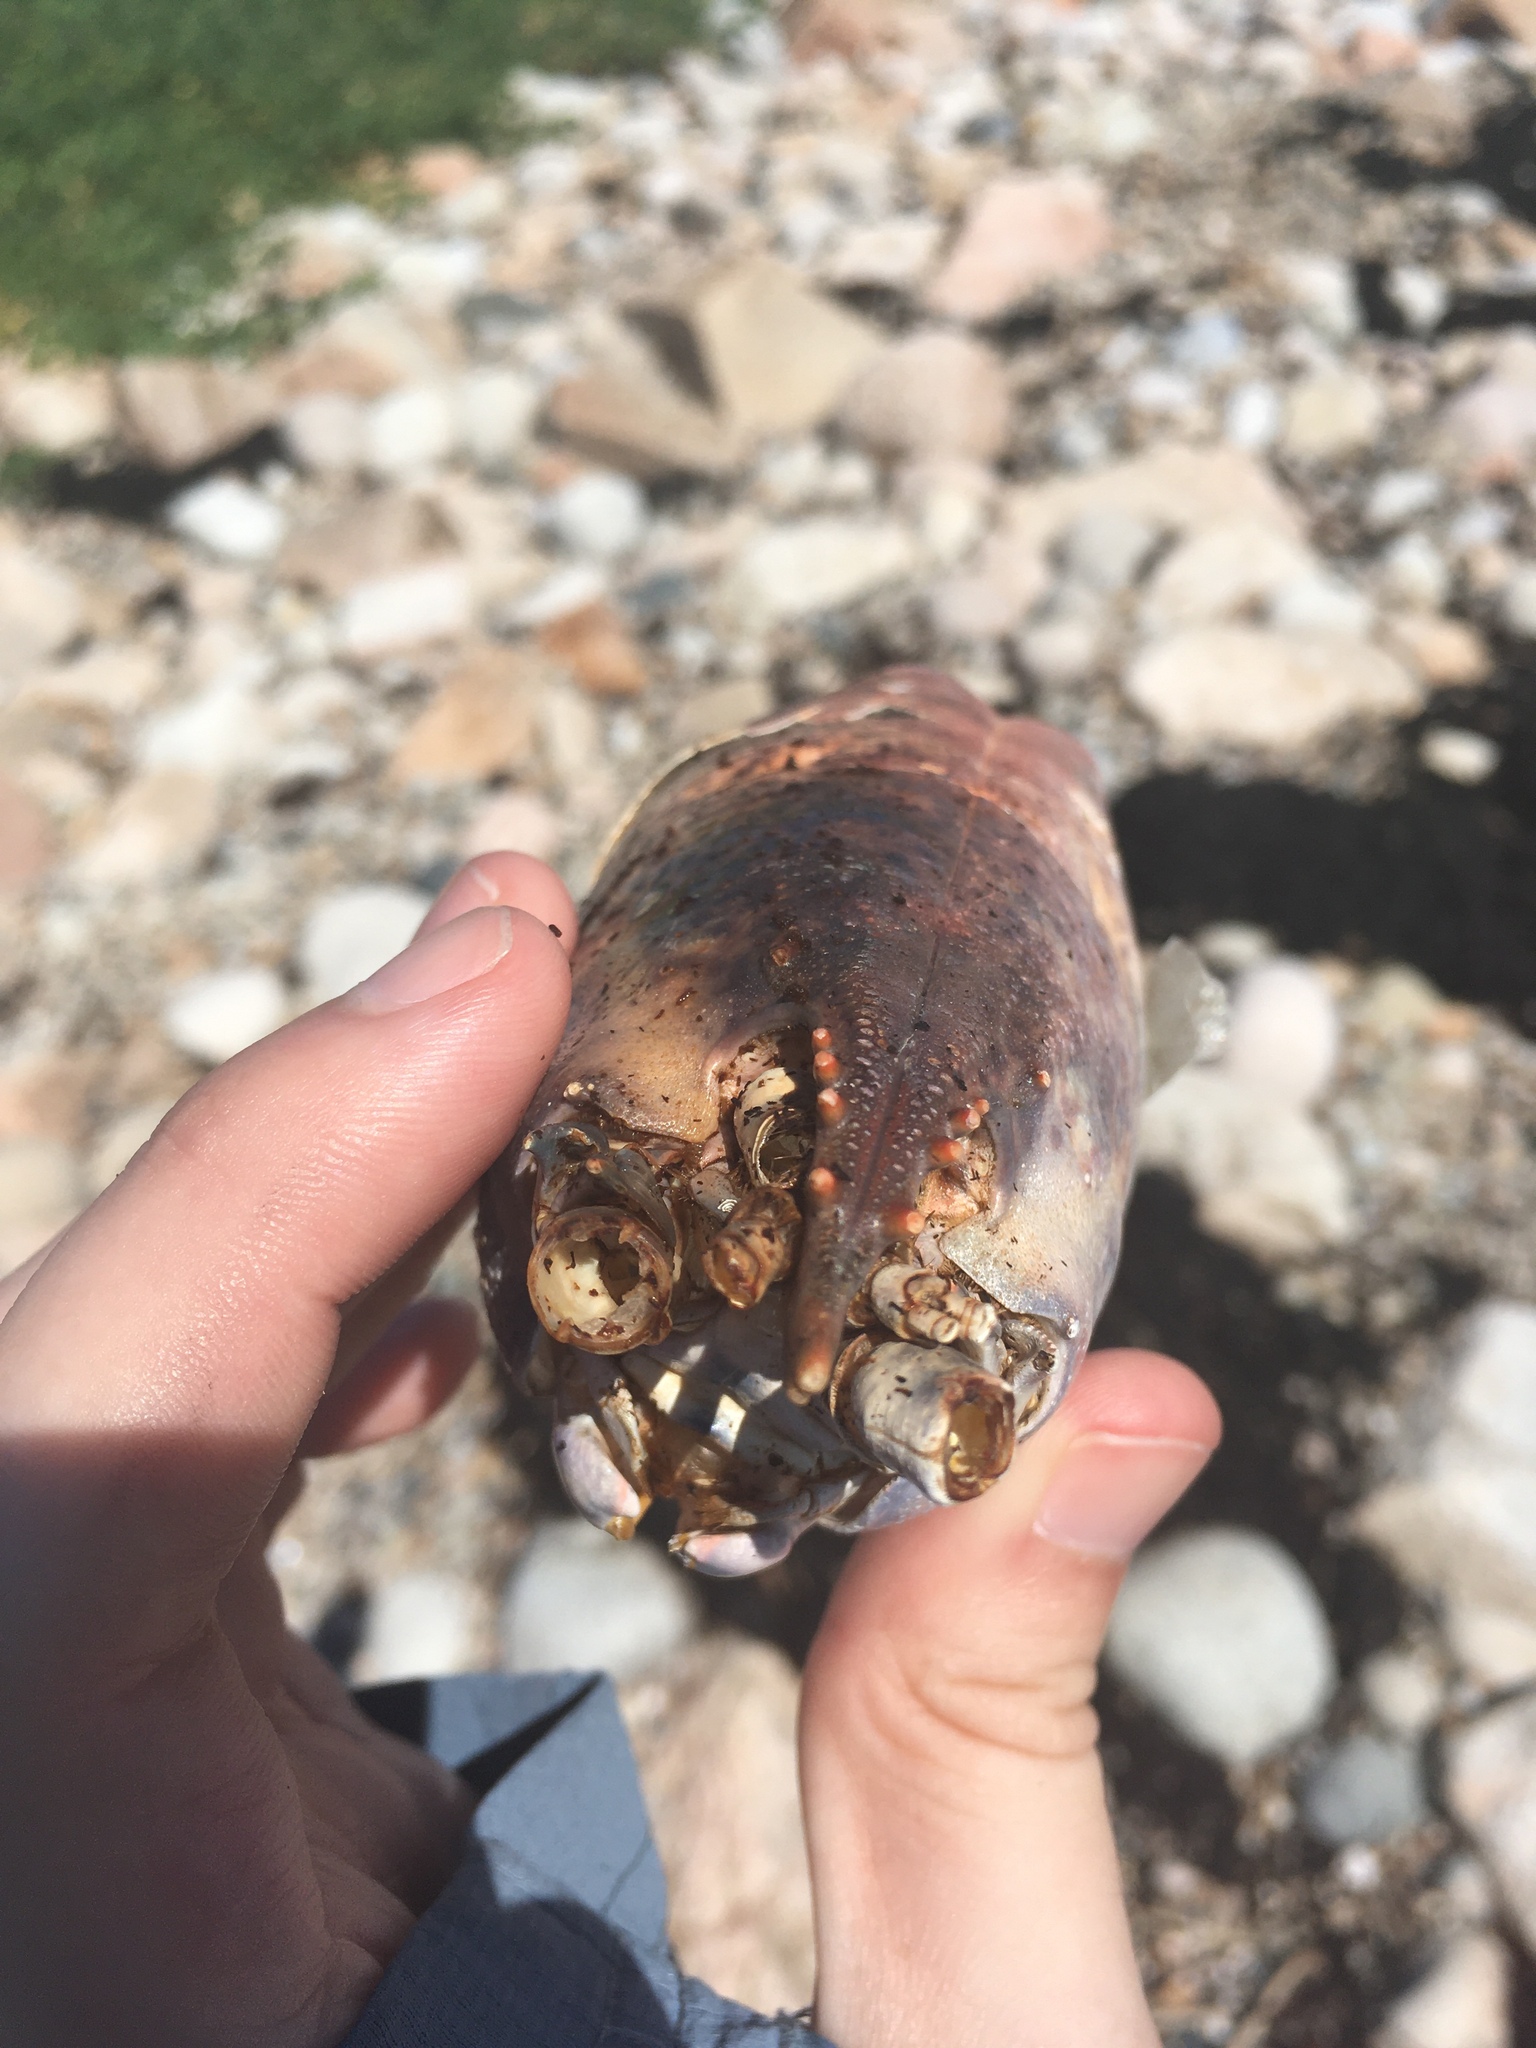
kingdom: Animalia
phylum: Arthropoda
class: Malacostraca
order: Decapoda
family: Nephropidae
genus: Homarus
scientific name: Homarus americanus
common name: American lobster
